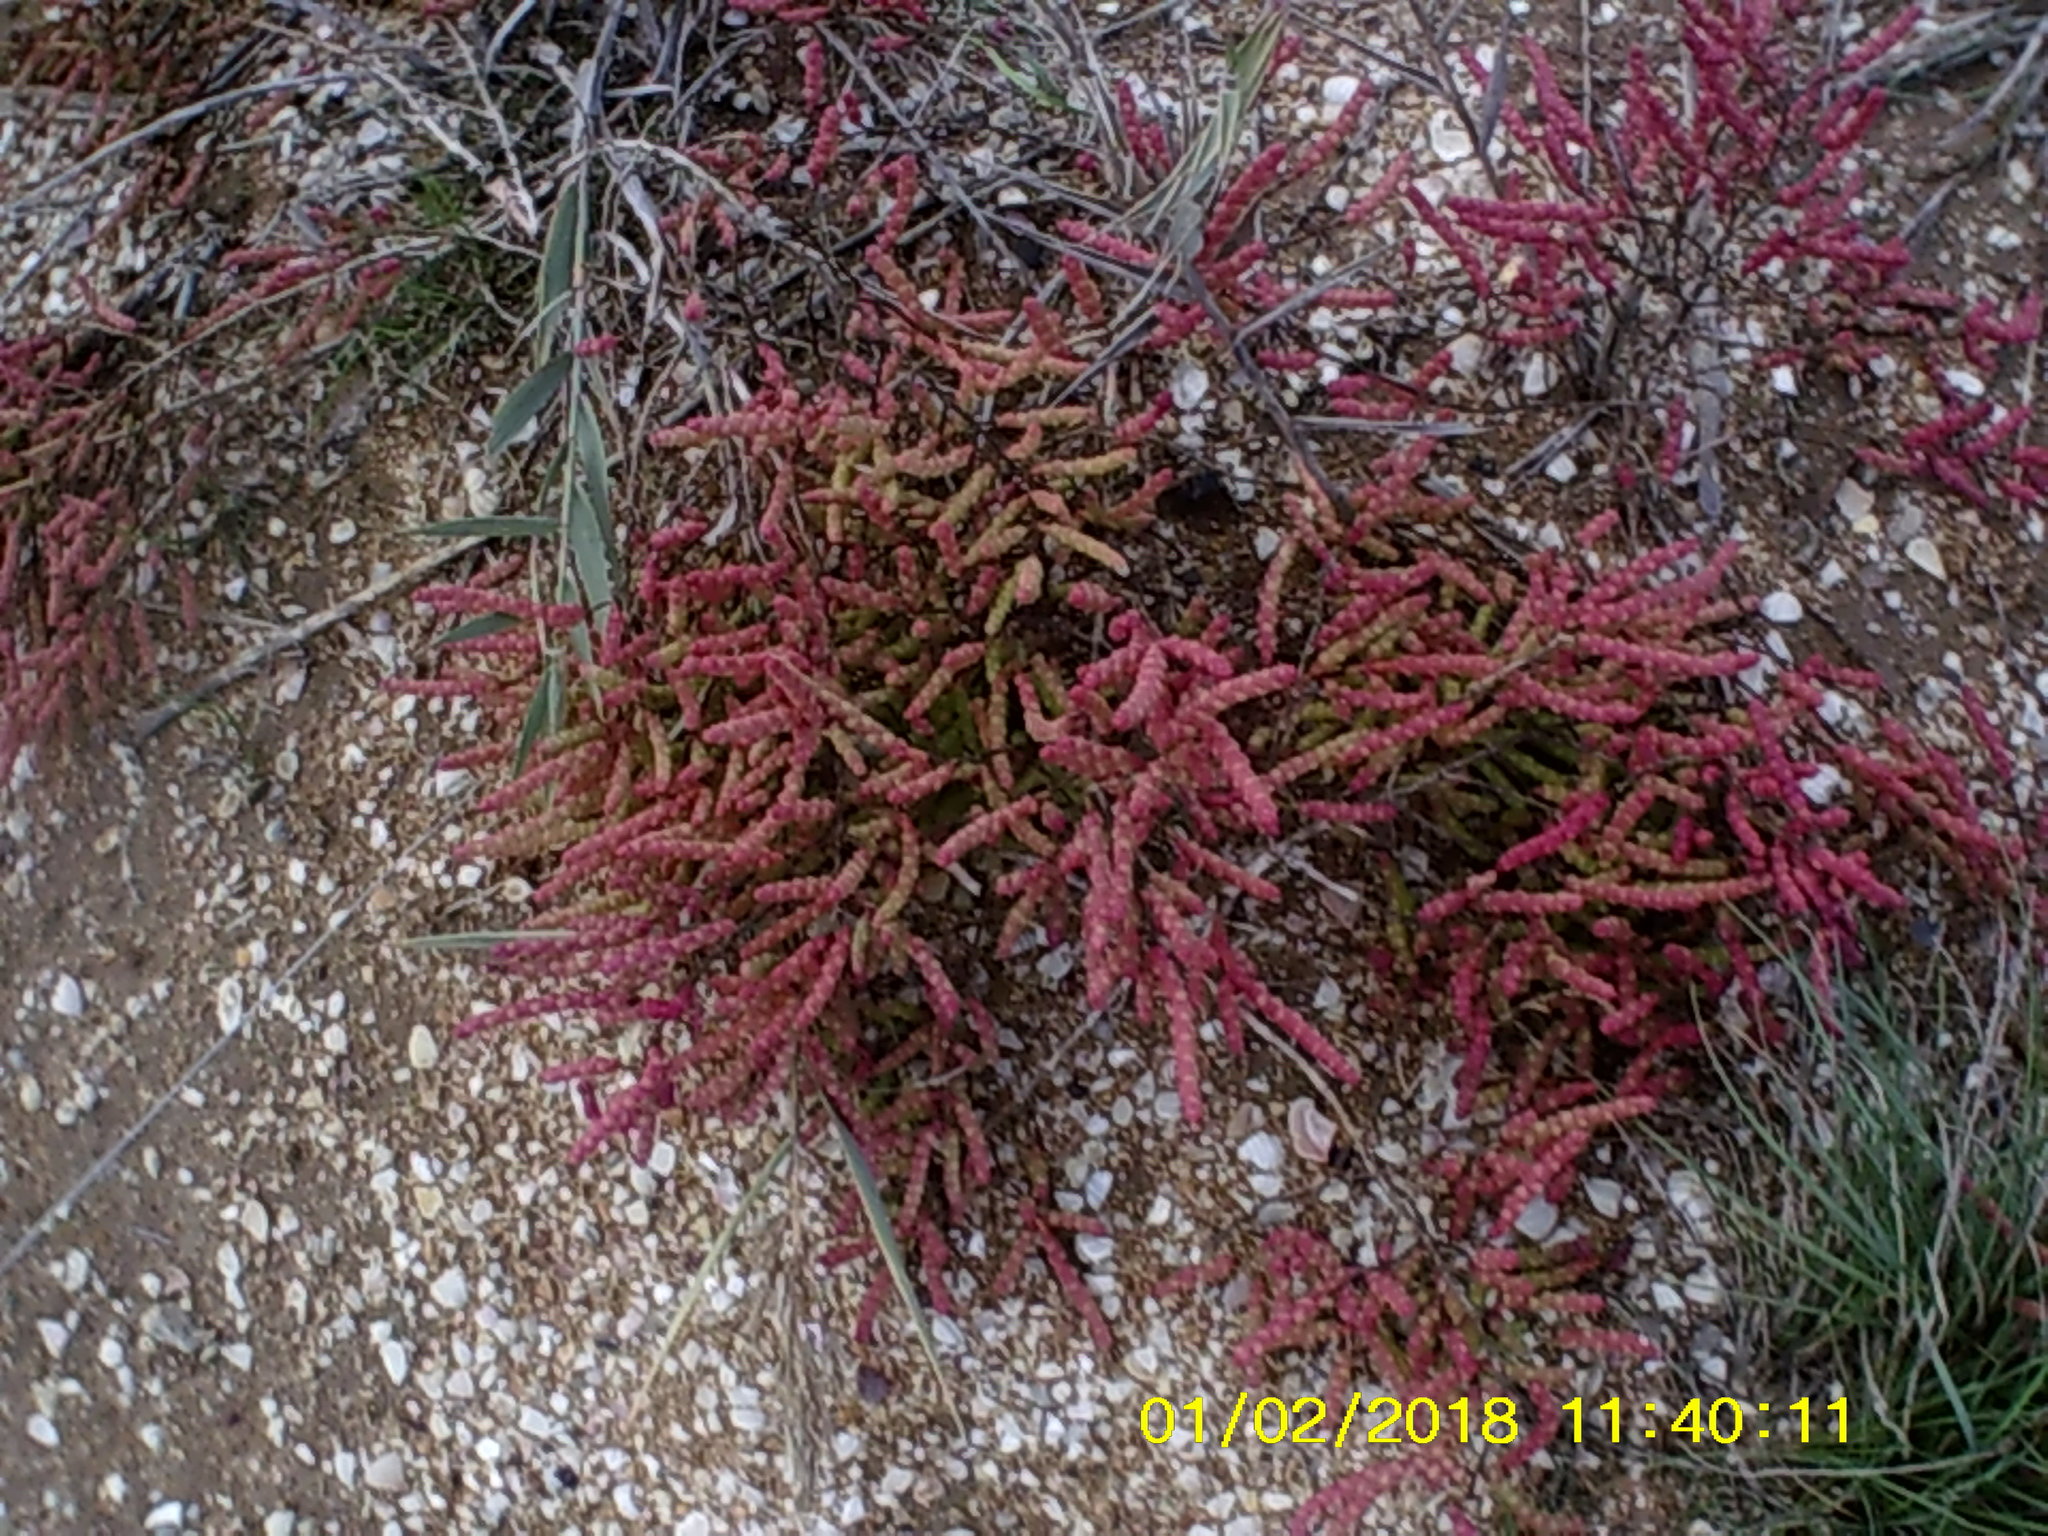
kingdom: Plantae
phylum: Tracheophyta
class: Magnoliopsida
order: Caryophyllales
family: Amaranthaceae
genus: Salicornia
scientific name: Salicornia perennans
